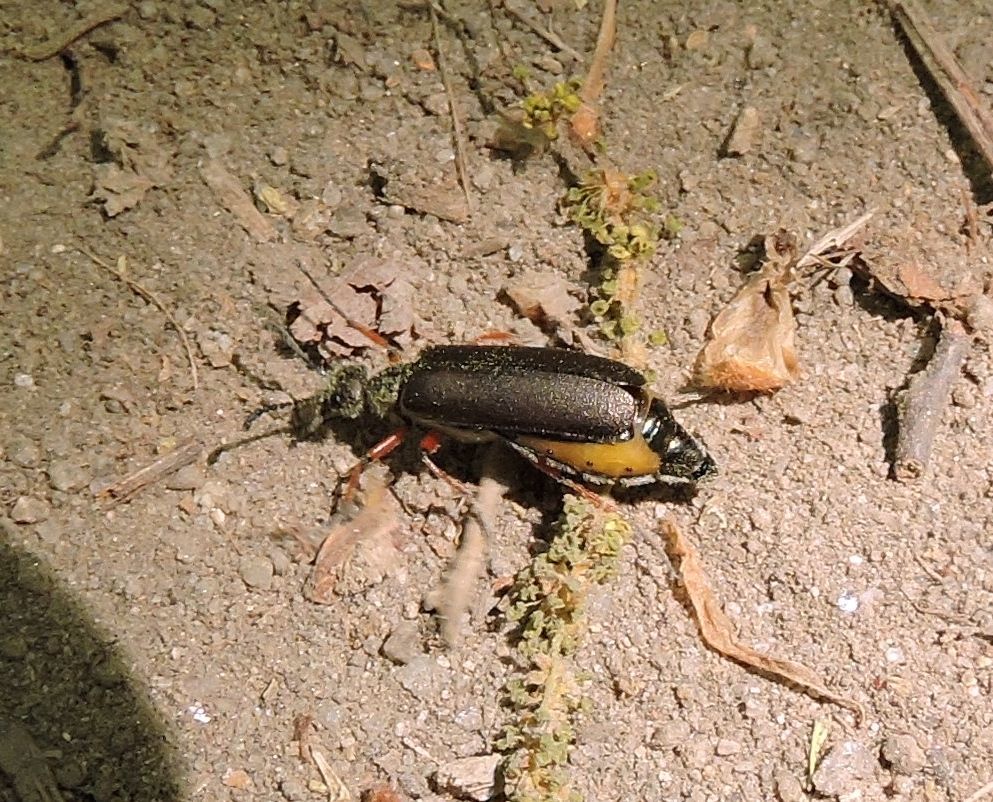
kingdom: Animalia
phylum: Arthropoda
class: Insecta
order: Coleoptera
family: Meloidae
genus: Lytta
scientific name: Lytta aenea
